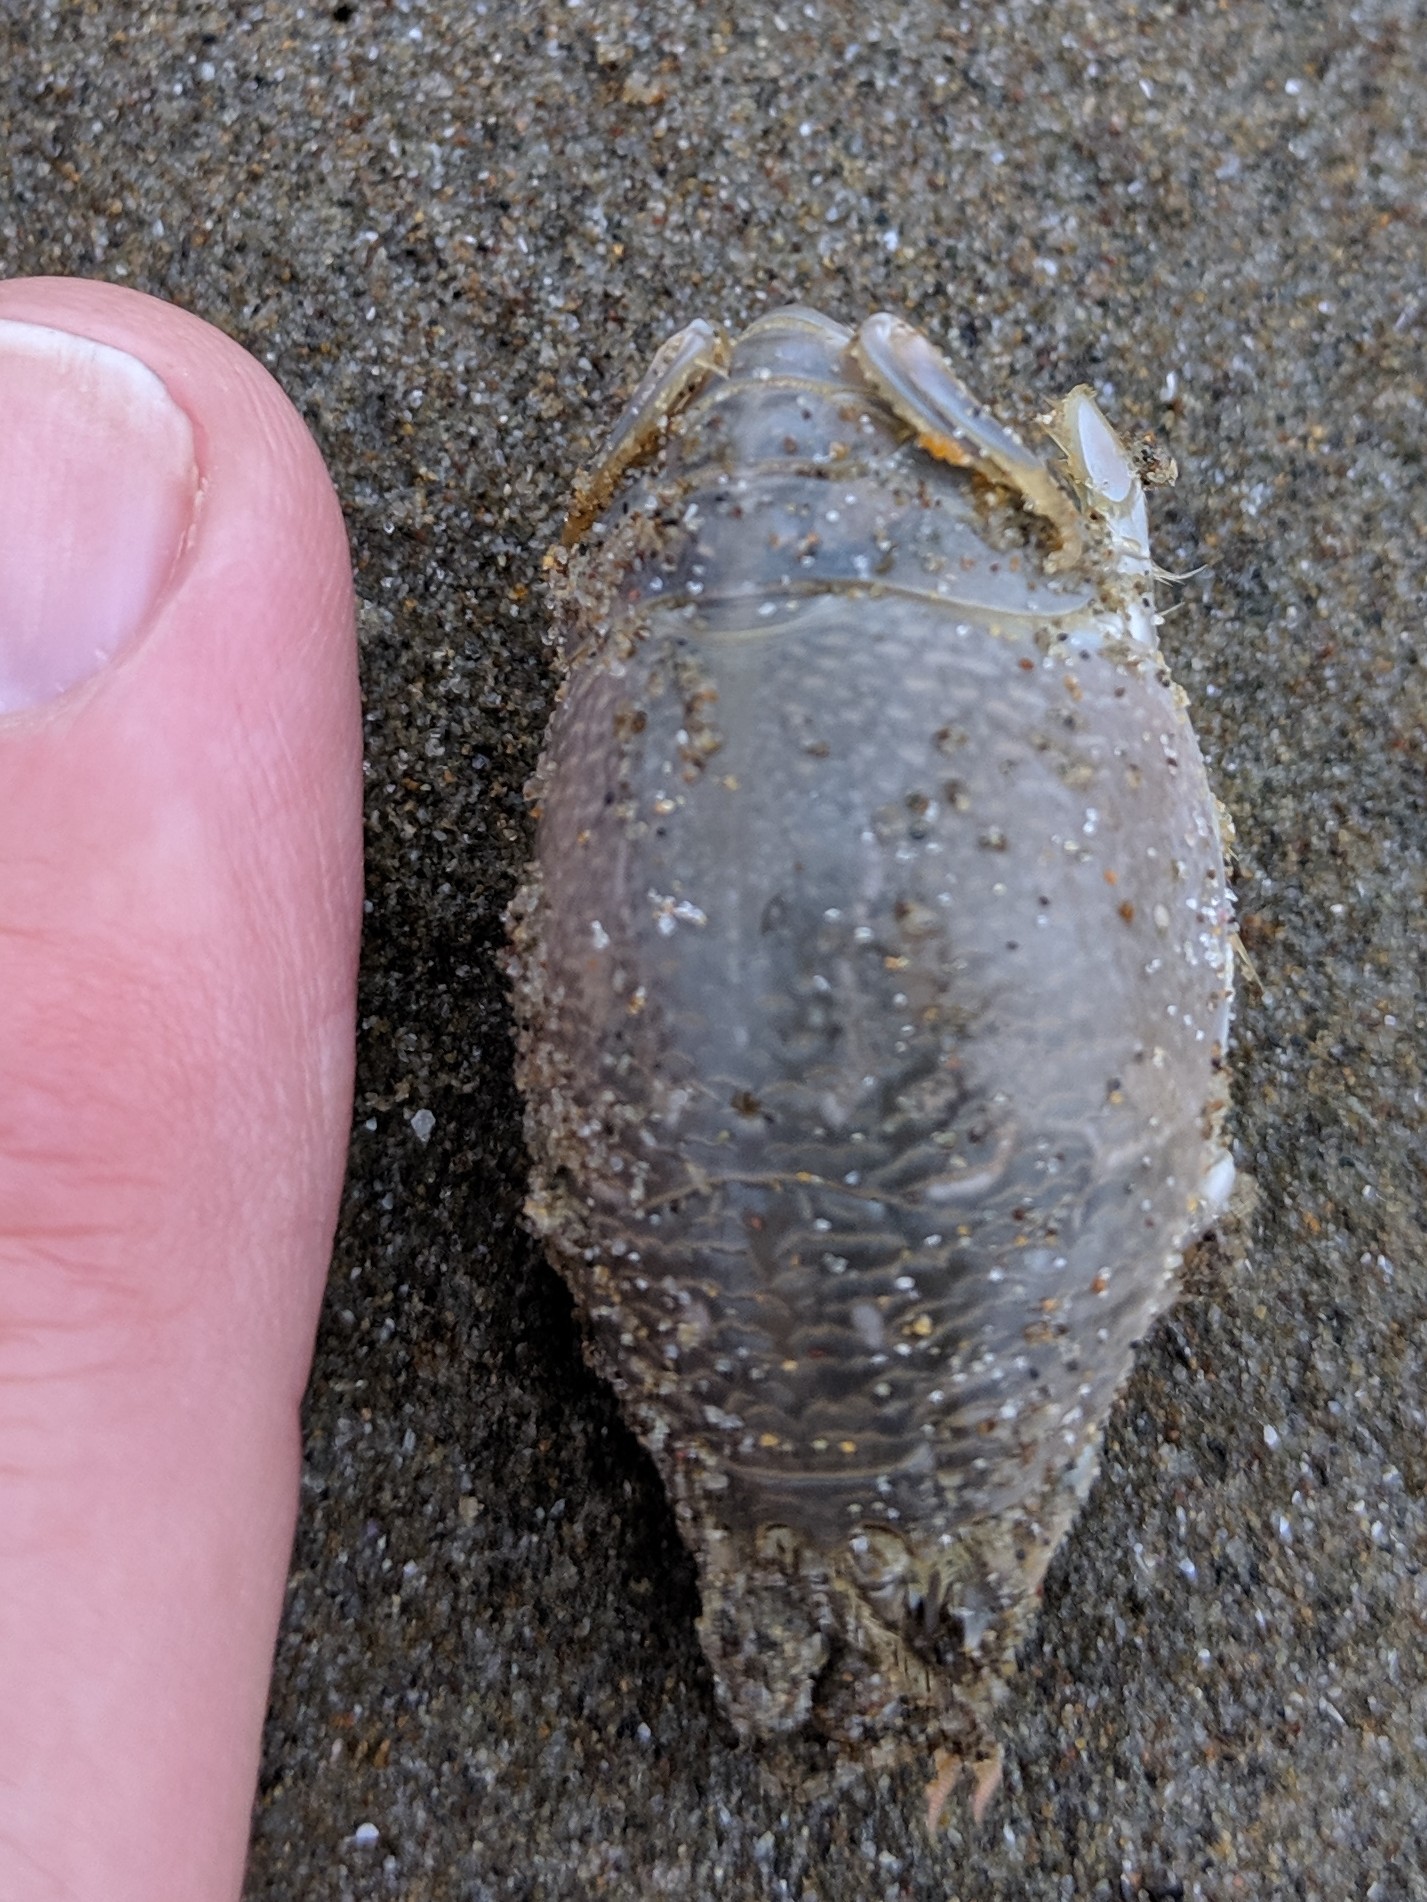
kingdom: Animalia
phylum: Arthropoda
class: Malacostraca
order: Decapoda
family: Hippidae
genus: Emerita
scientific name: Emerita analoga
